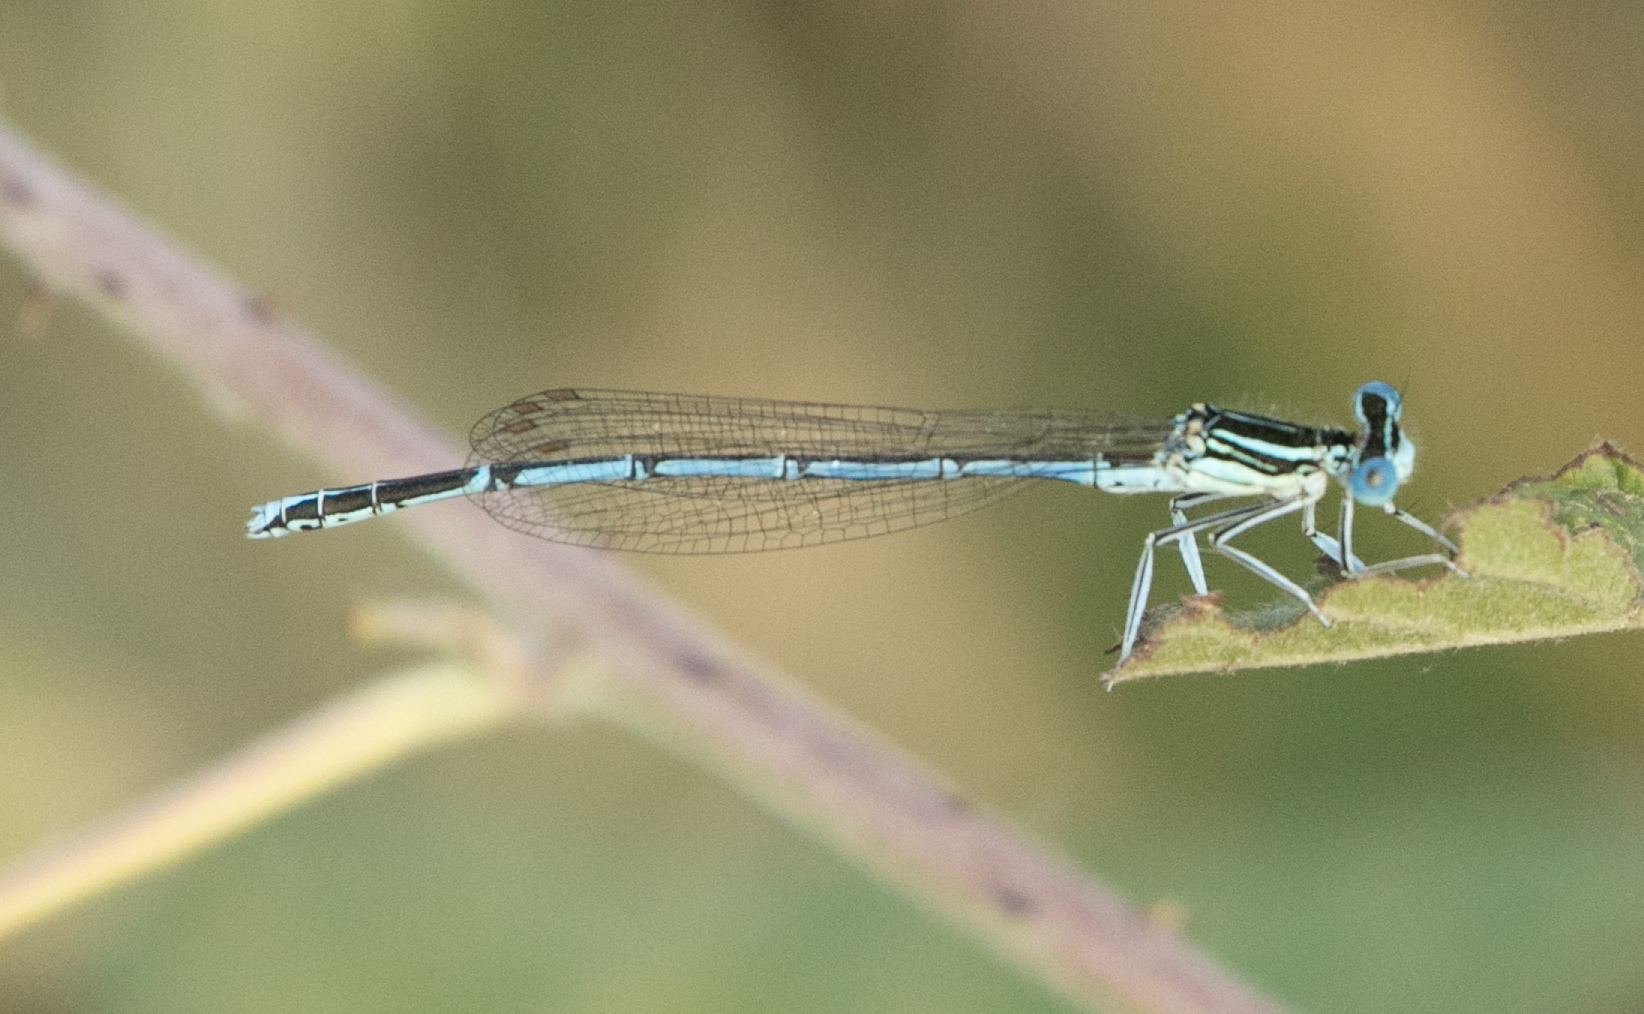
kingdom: Animalia
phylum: Arthropoda
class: Insecta
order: Odonata
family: Platycnemididae
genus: Platycnemis
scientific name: Platycnemis pennipes
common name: White-legged damselfly
